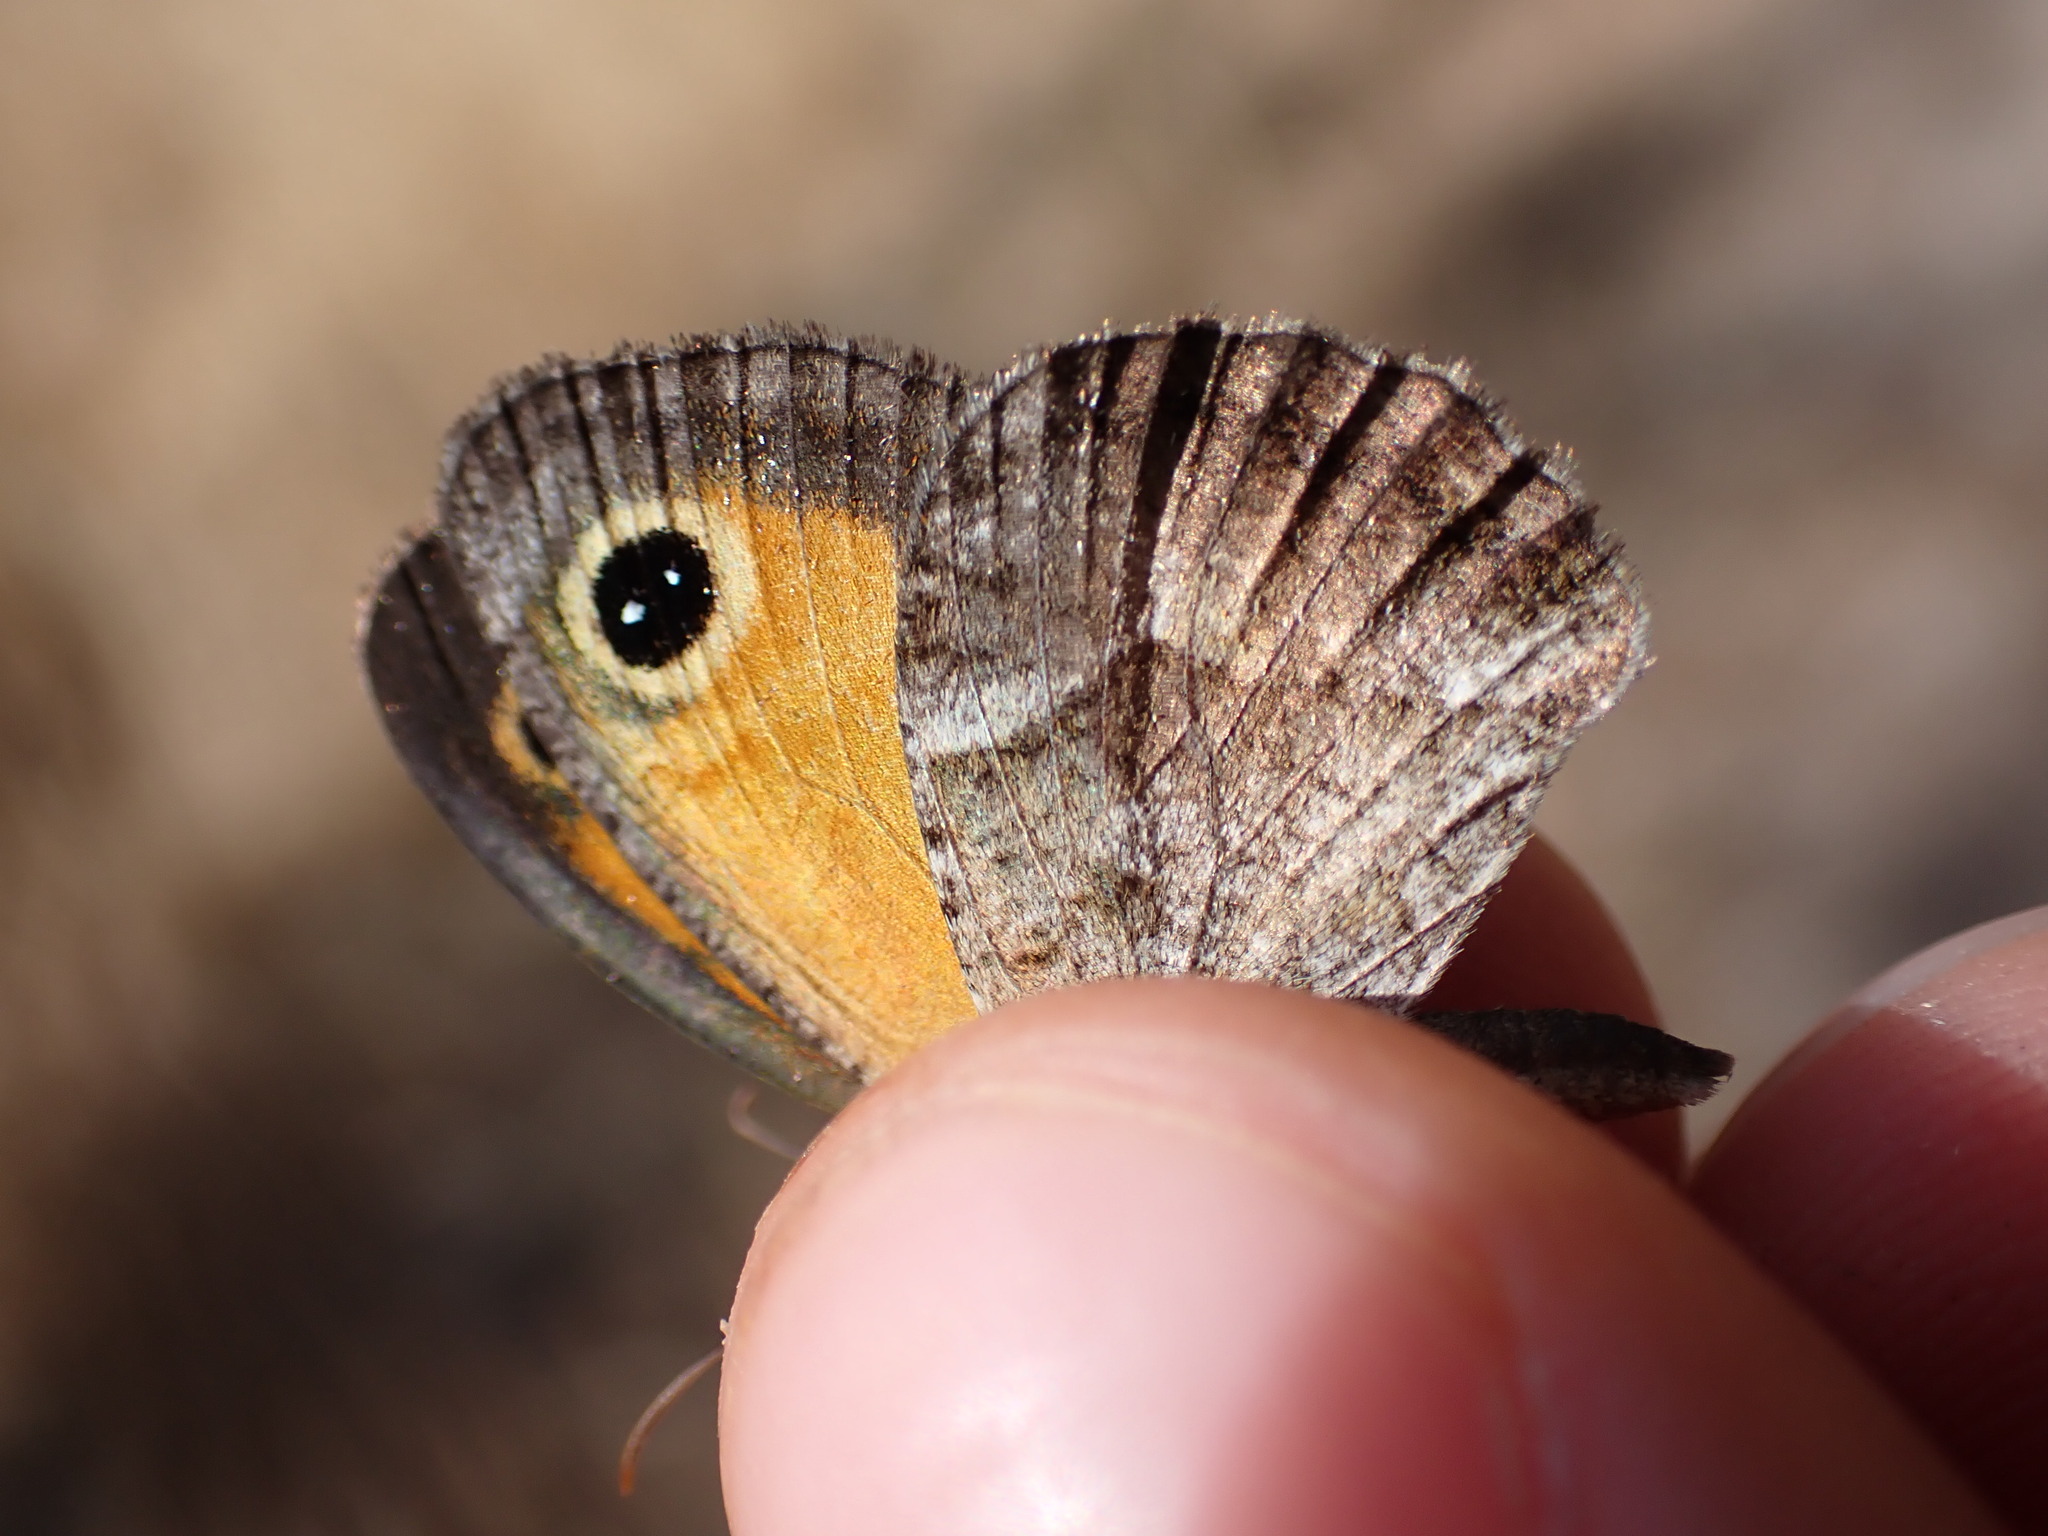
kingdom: Animalia
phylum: Arthropoda
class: Insecta
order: Lepidoptera
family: Nymphalidae
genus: Pyronia
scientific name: Pyronia cecilia
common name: Southern gatekeeper
